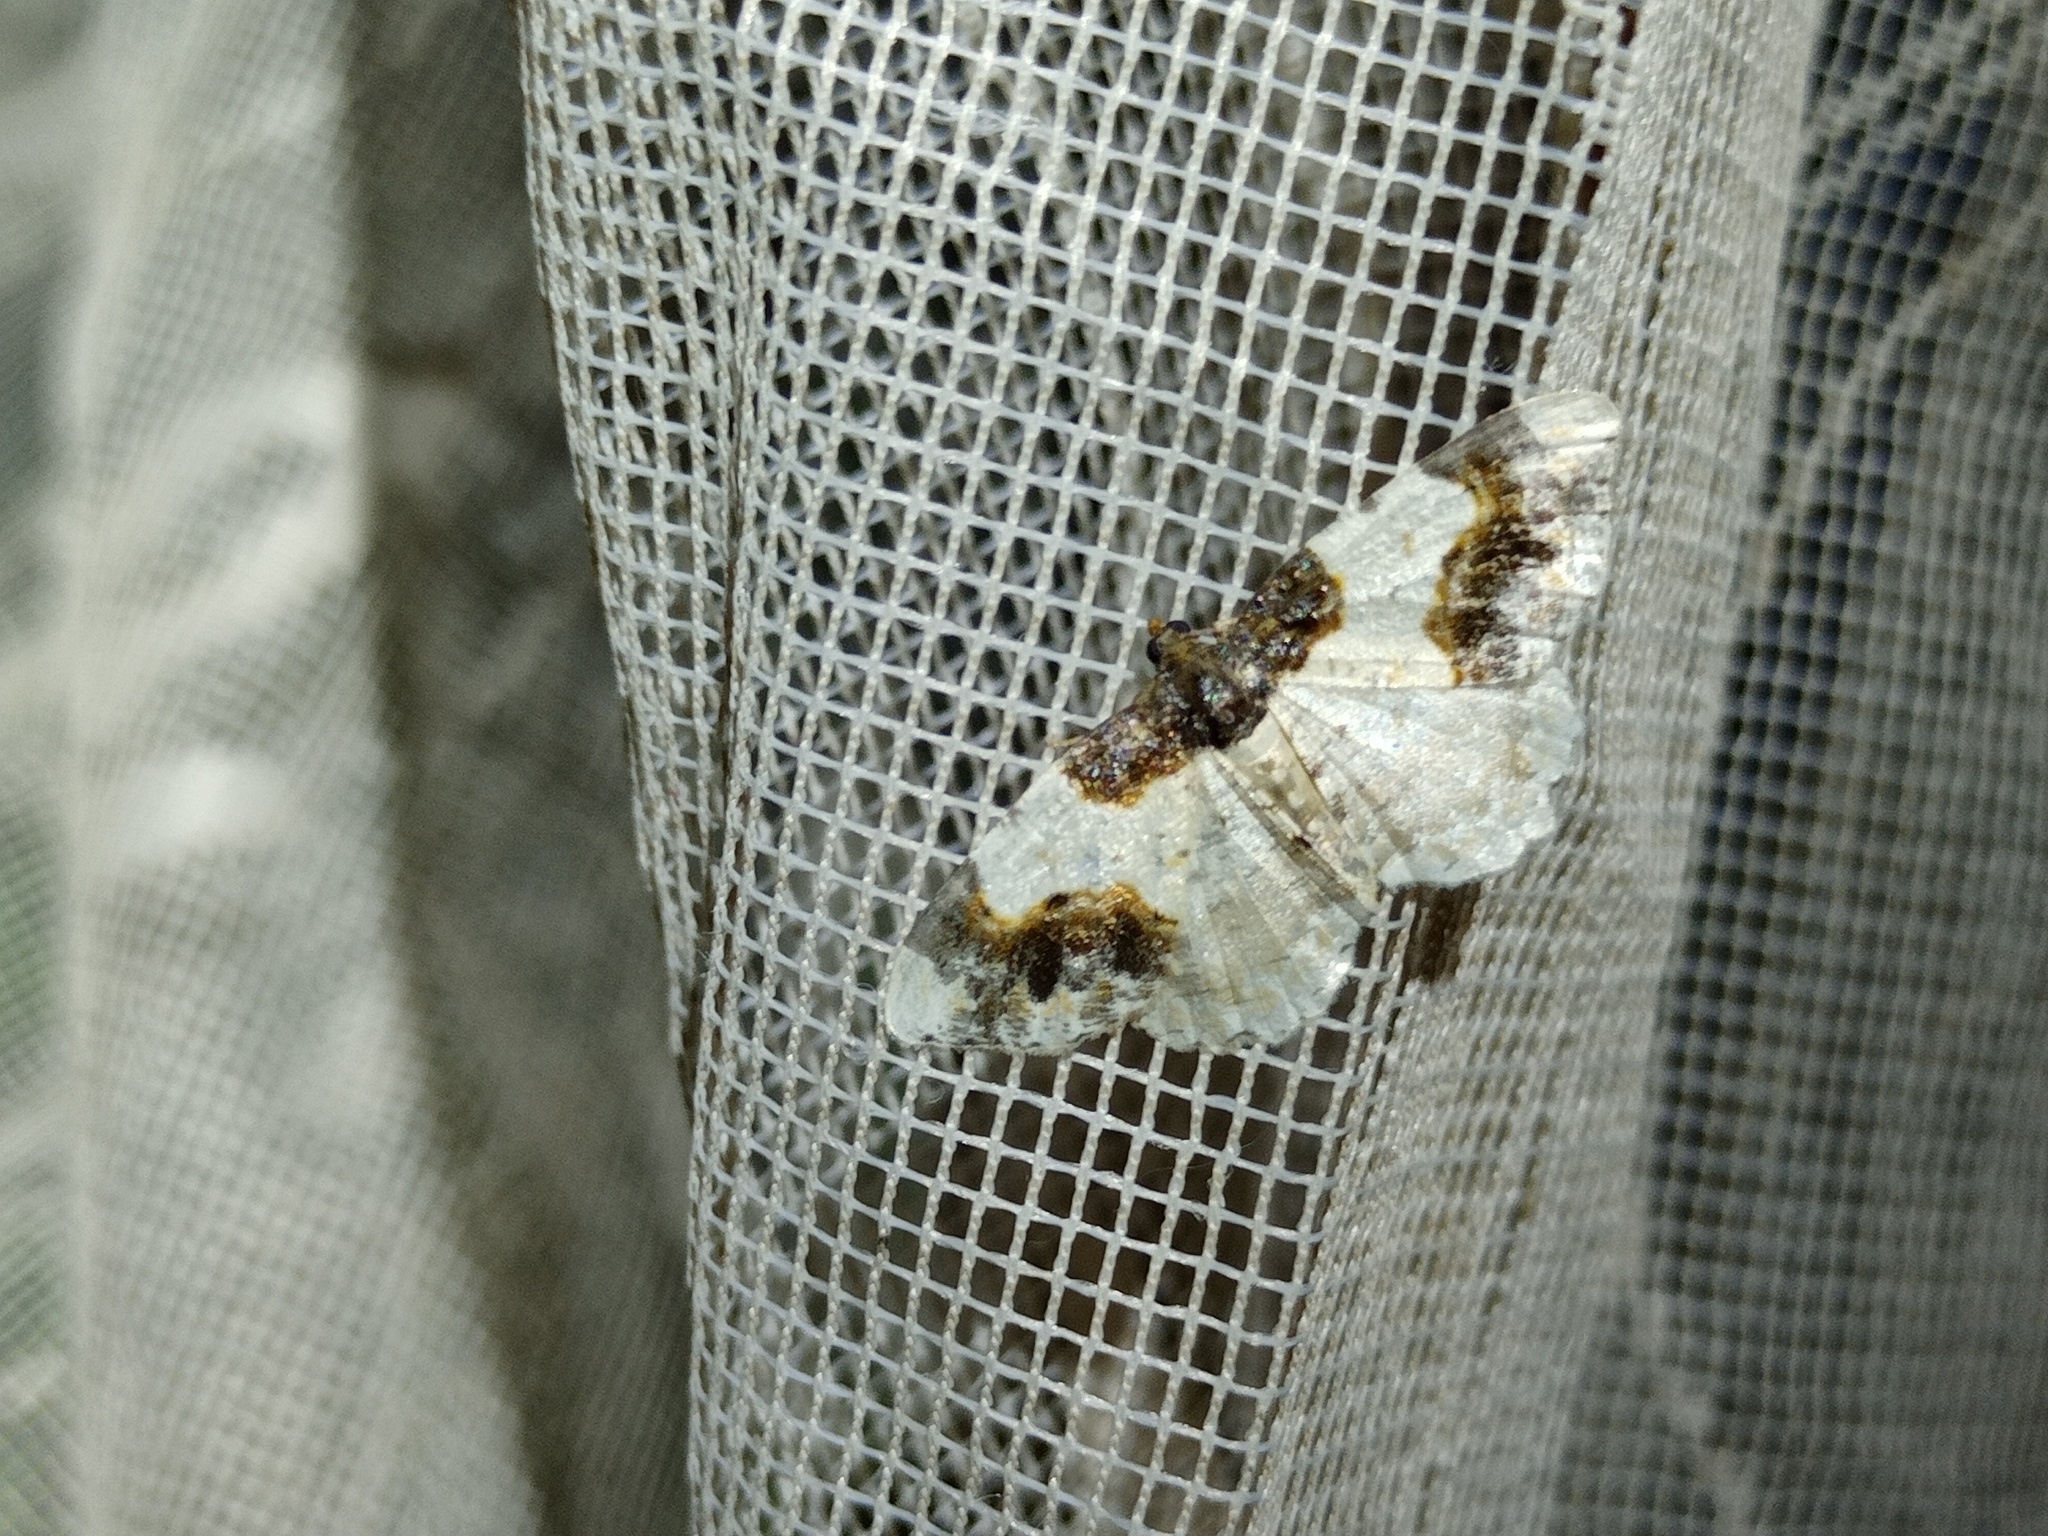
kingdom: Animalia
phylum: Arthropoda
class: Insecta
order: Lepidoptera
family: Geometridae
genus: Ligdia
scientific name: Ligdia adustata
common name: Scorched carpet
